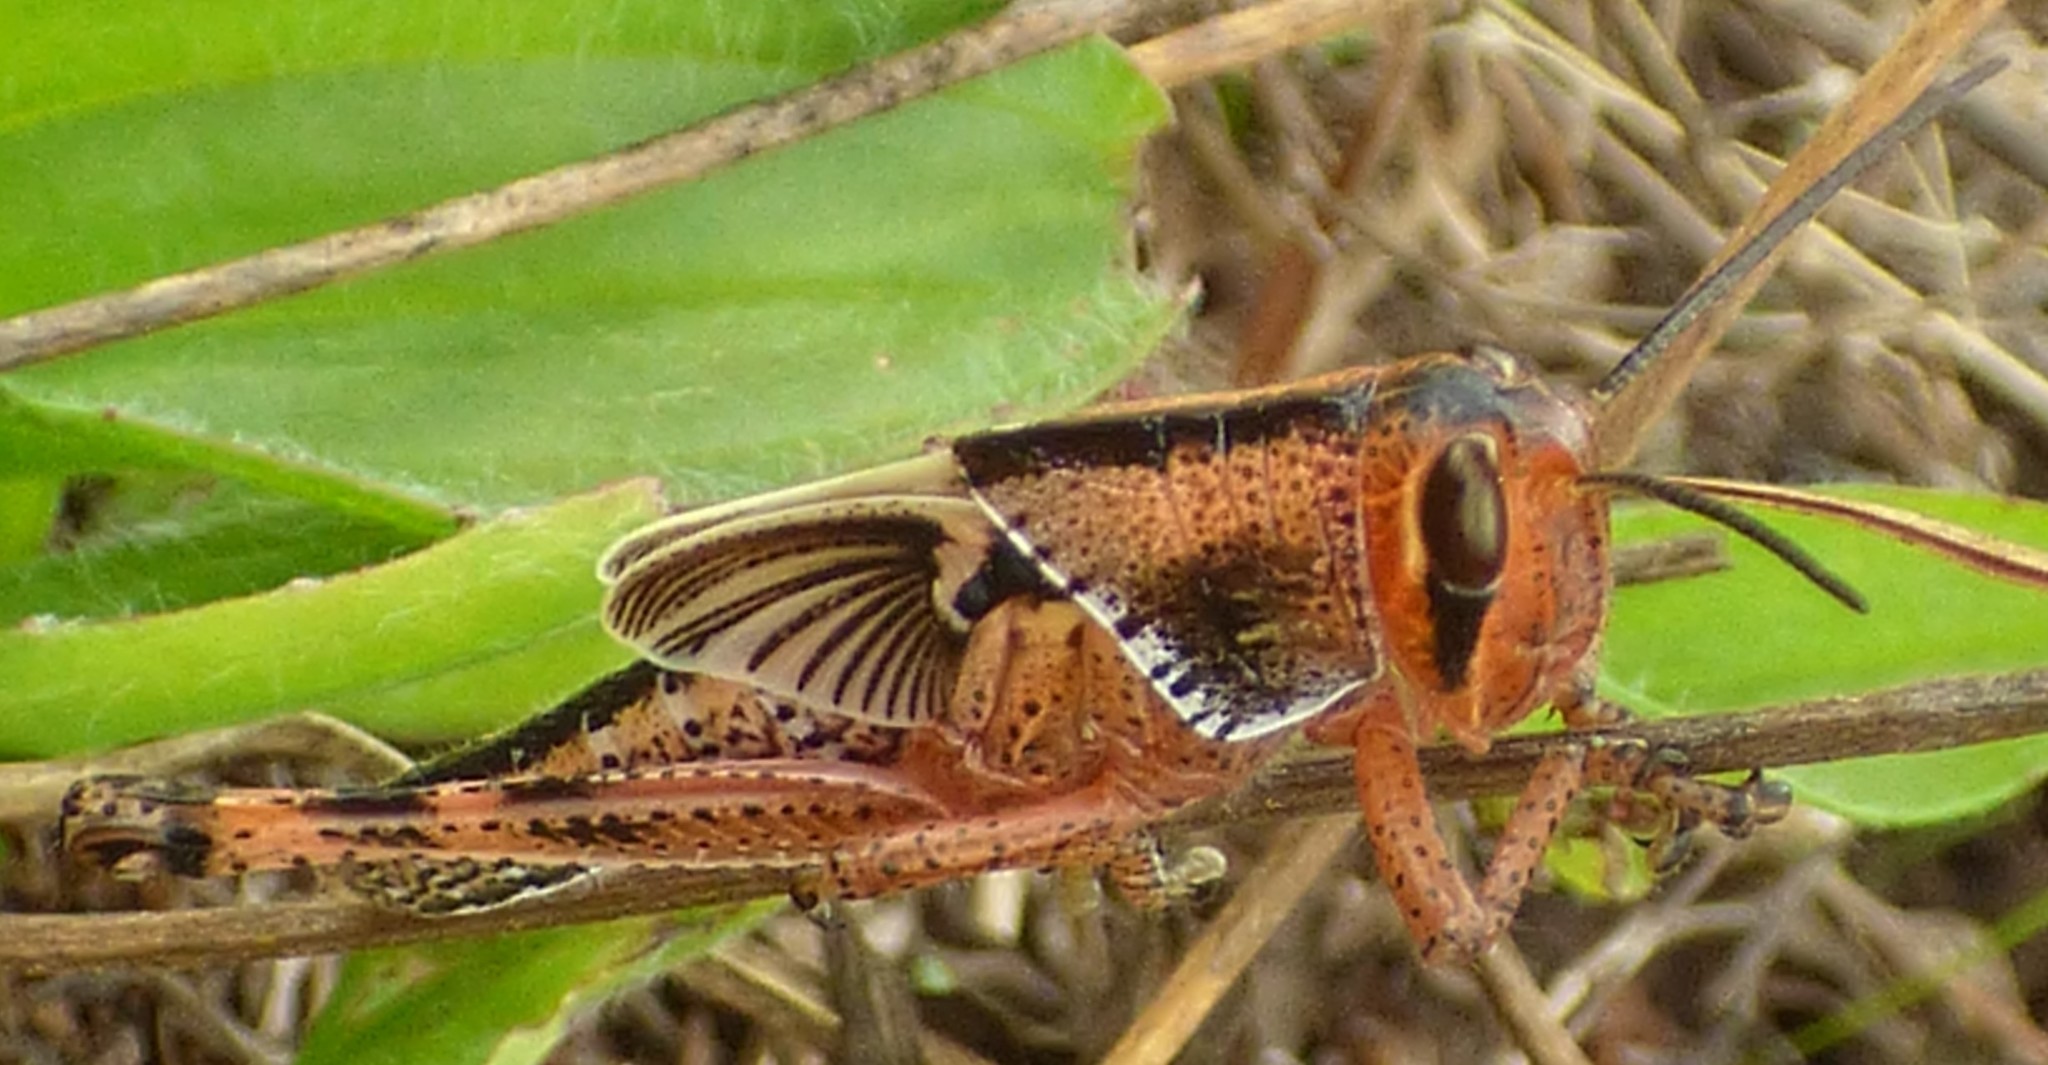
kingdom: Animalia
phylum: Arthropoda
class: Insecta
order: Orthoptera
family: Acrididae
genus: Schistocerca
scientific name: Schistocerca americana
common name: American bird locust
